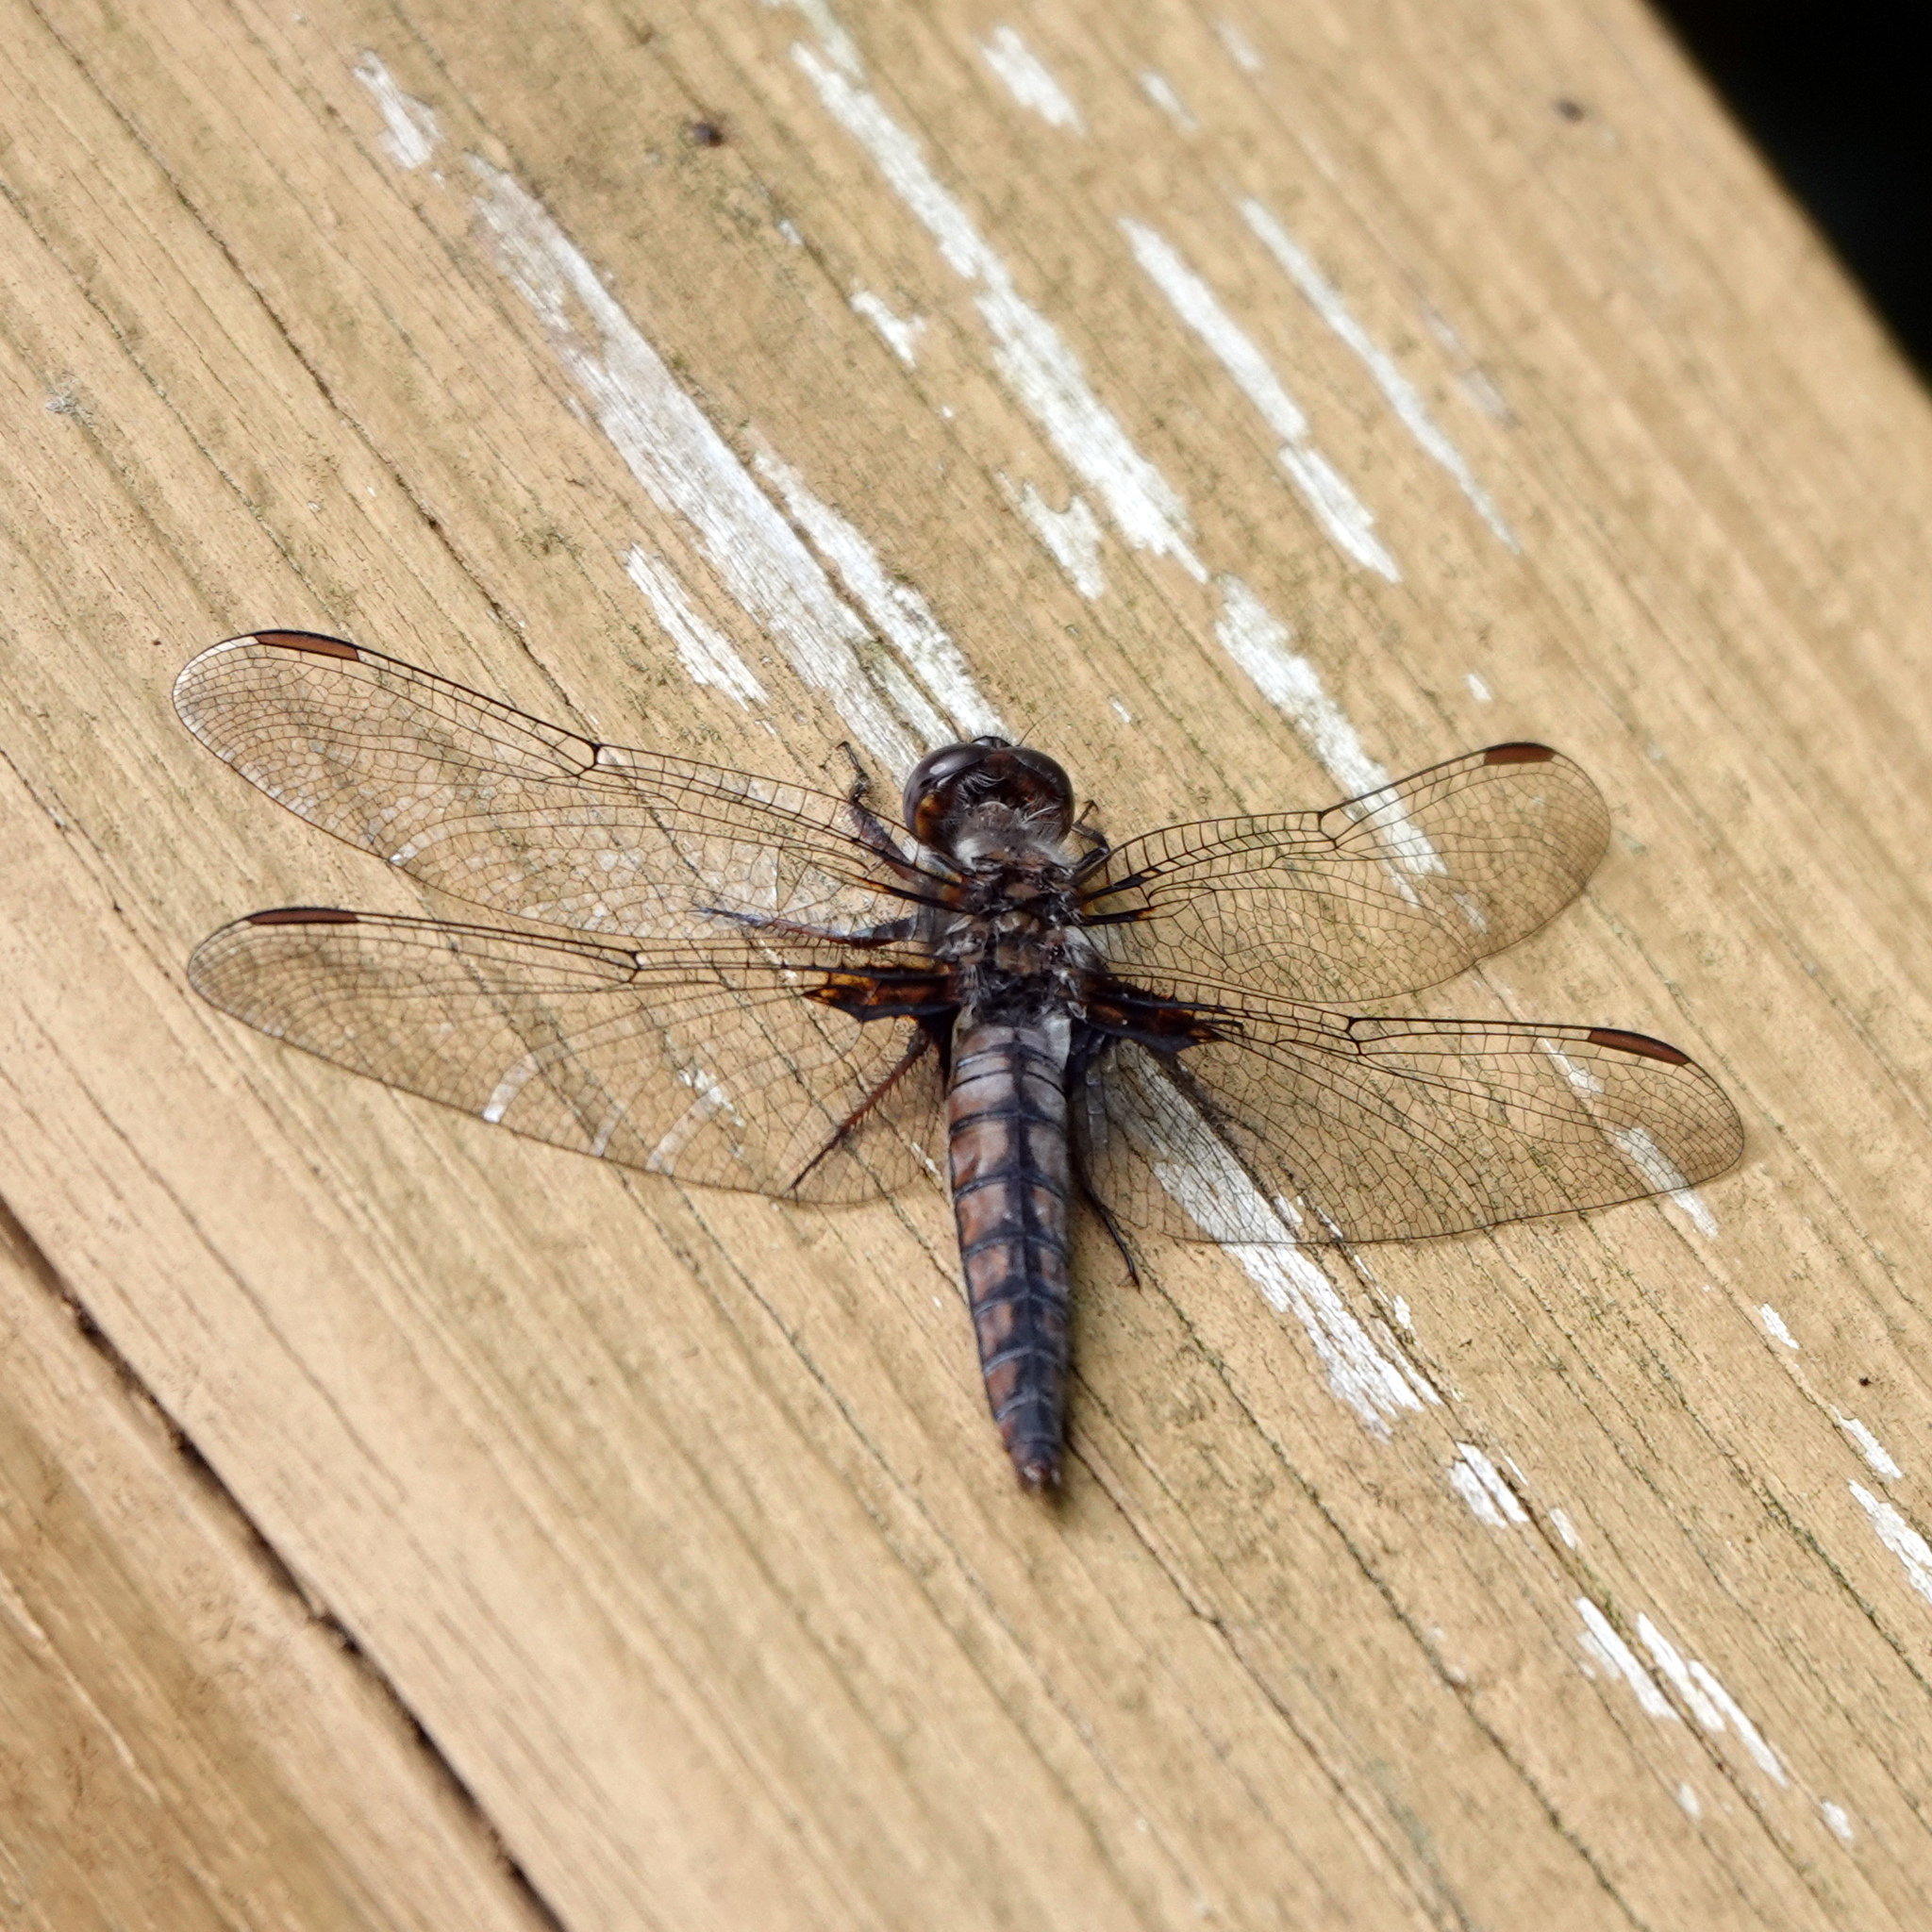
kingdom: Animalia
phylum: Arthropoda
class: Insecta
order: Odonata
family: Libellulidae
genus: Ladona
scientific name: Ladona deplanata
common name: Blue corporal
